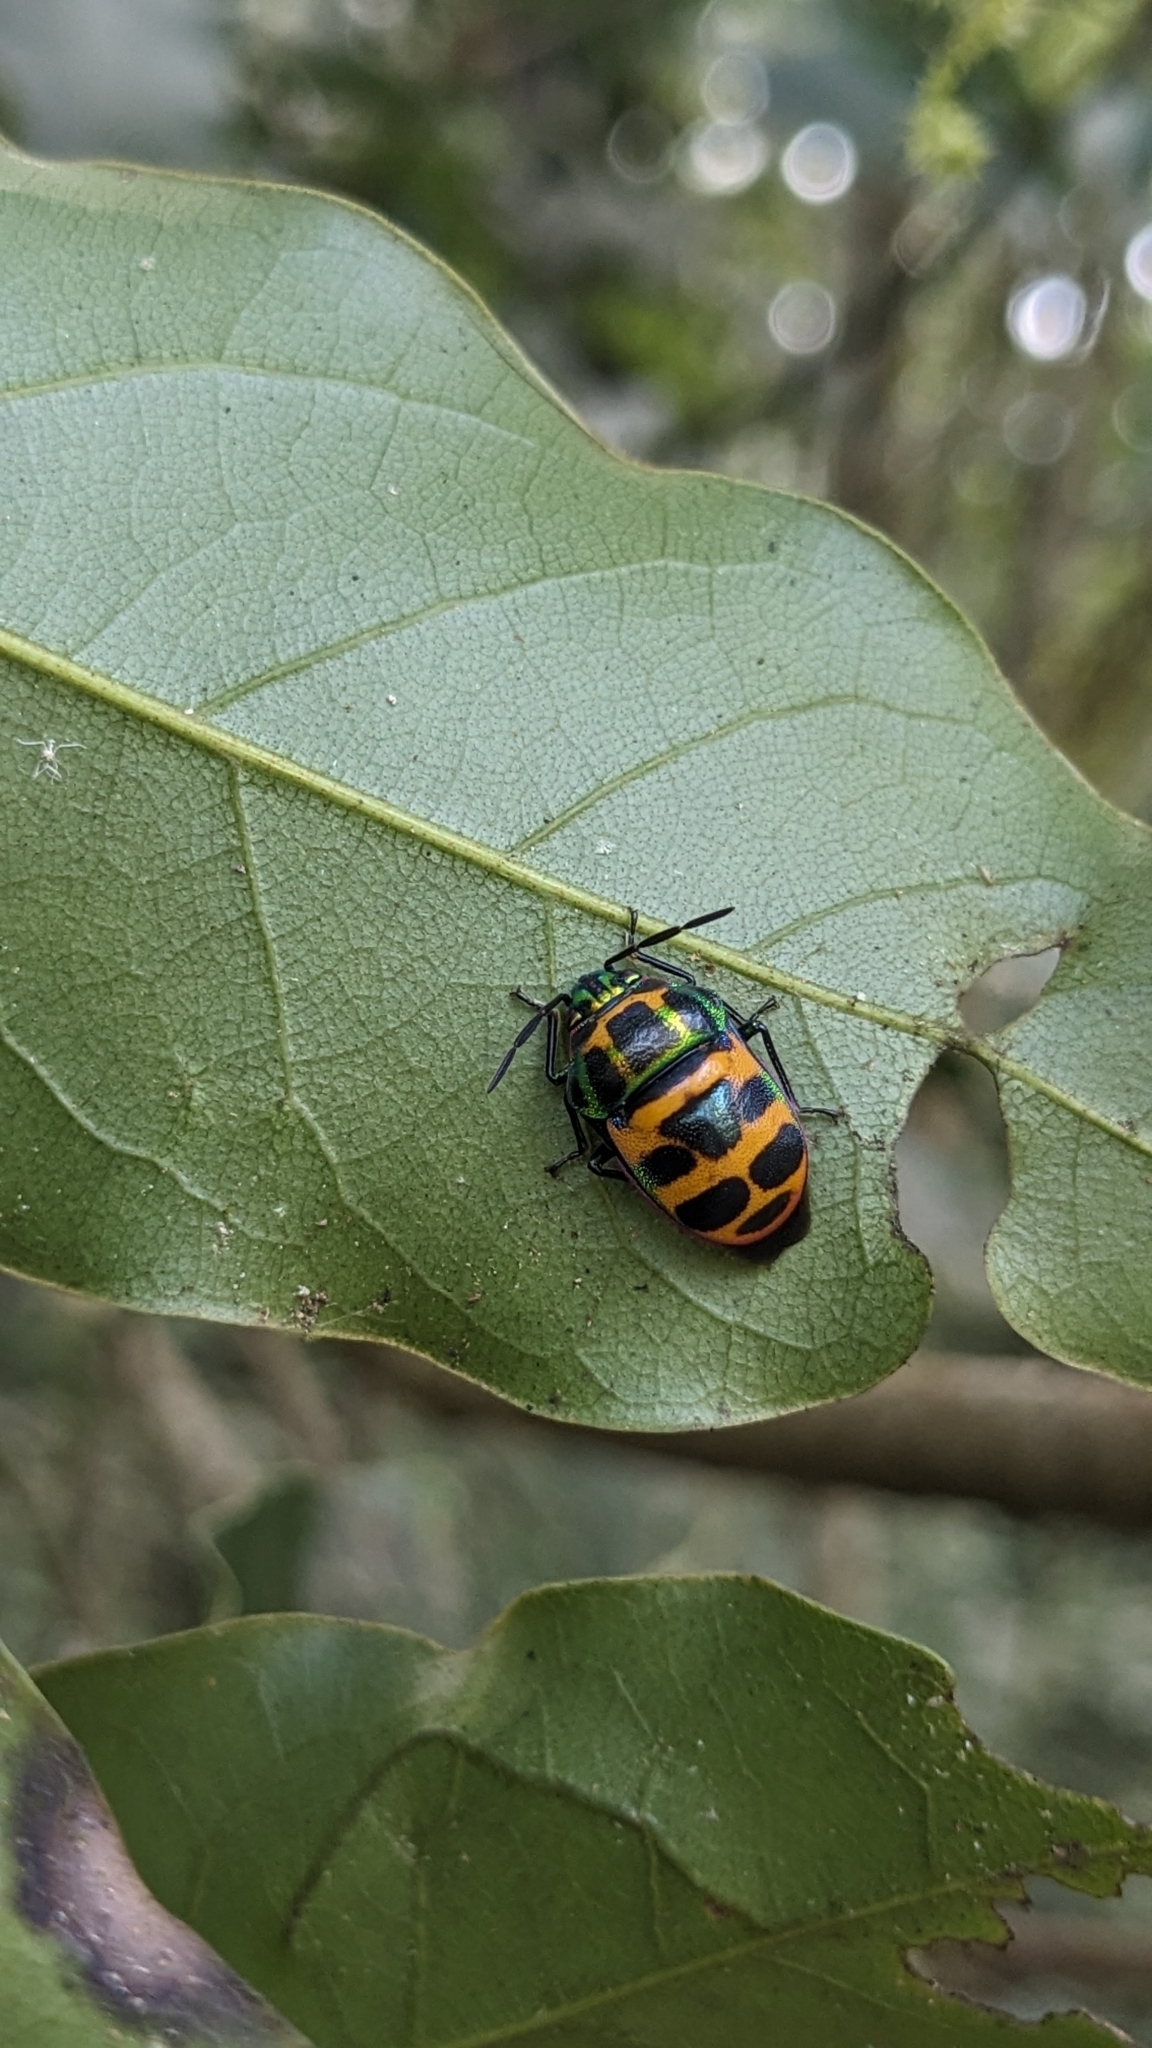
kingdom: Animalia
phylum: Arthropoda
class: Insecta
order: Hemiptera
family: Scutelleridae
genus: Chrysocoris
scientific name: Chrysocoris fascialis
